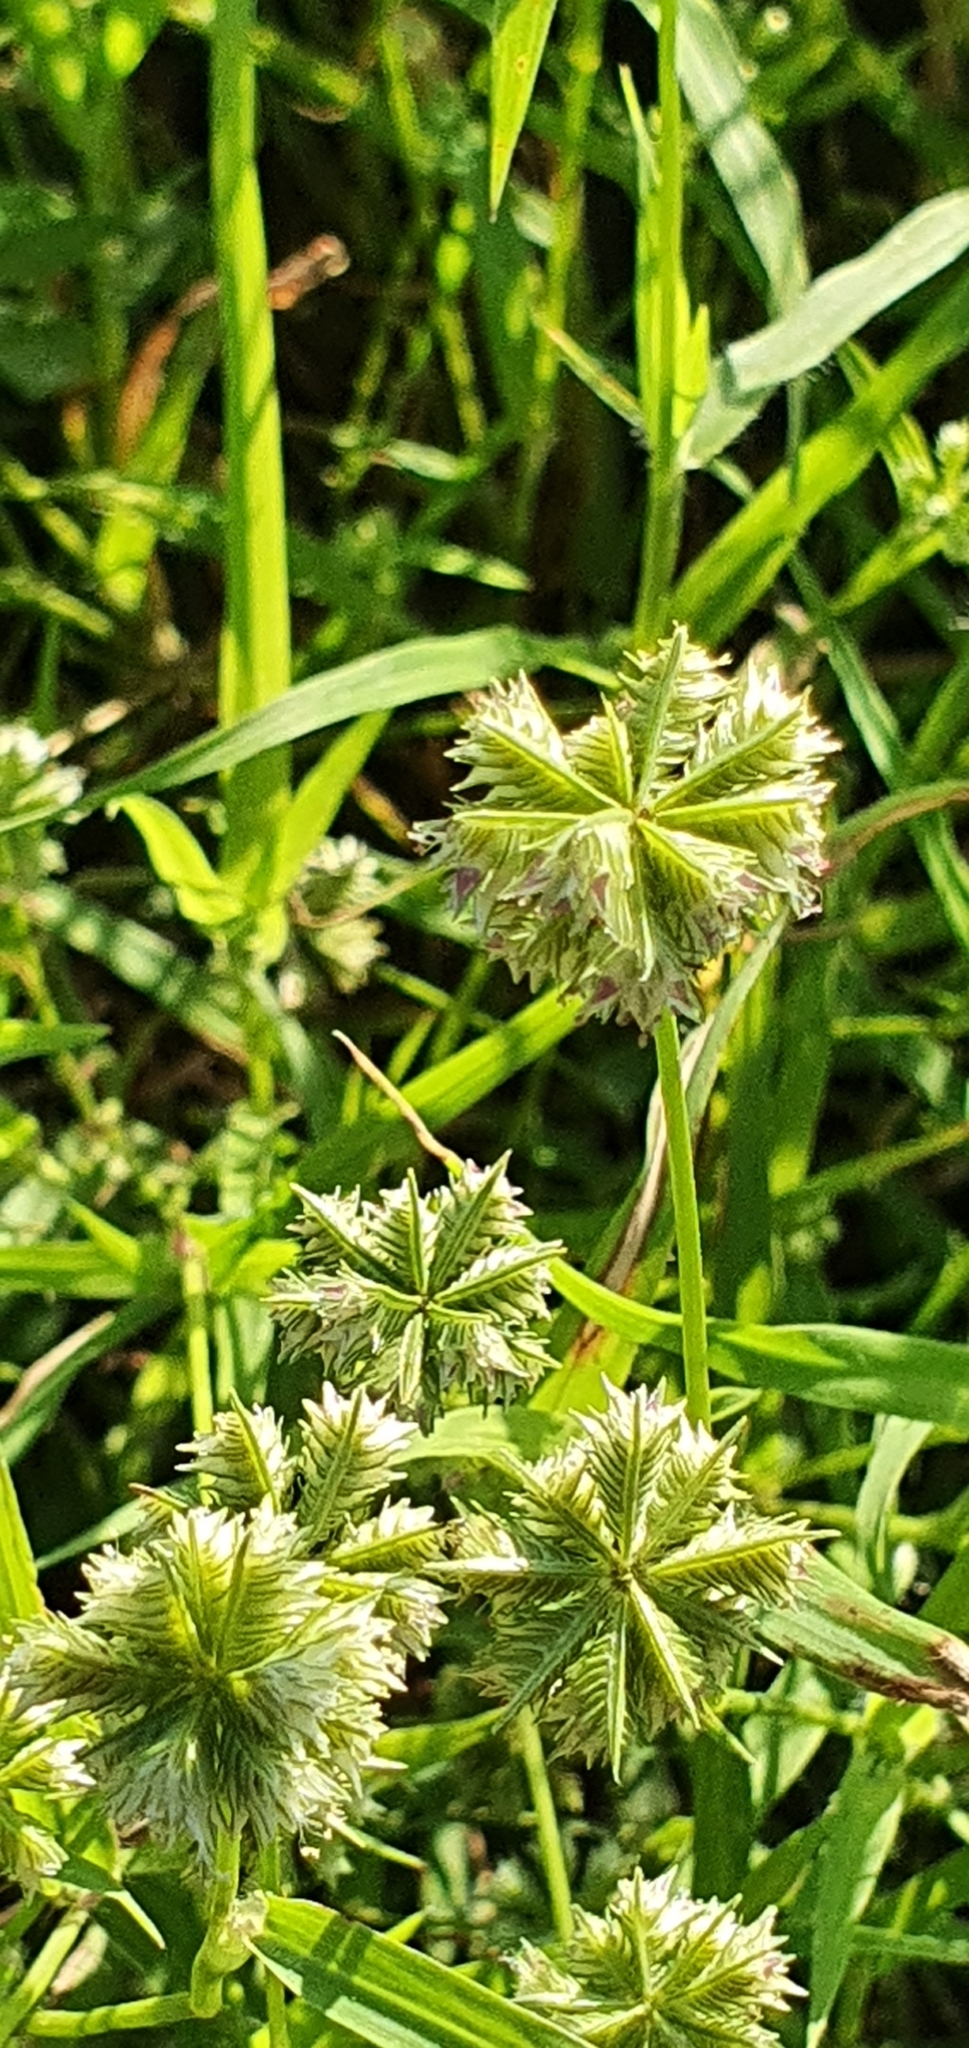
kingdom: Plantae
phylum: Tracheophyta
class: Liliopsida
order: Poales
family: Poaceae
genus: Dactyloctenium
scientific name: Dactyloctenium radulans
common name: Button-grass
